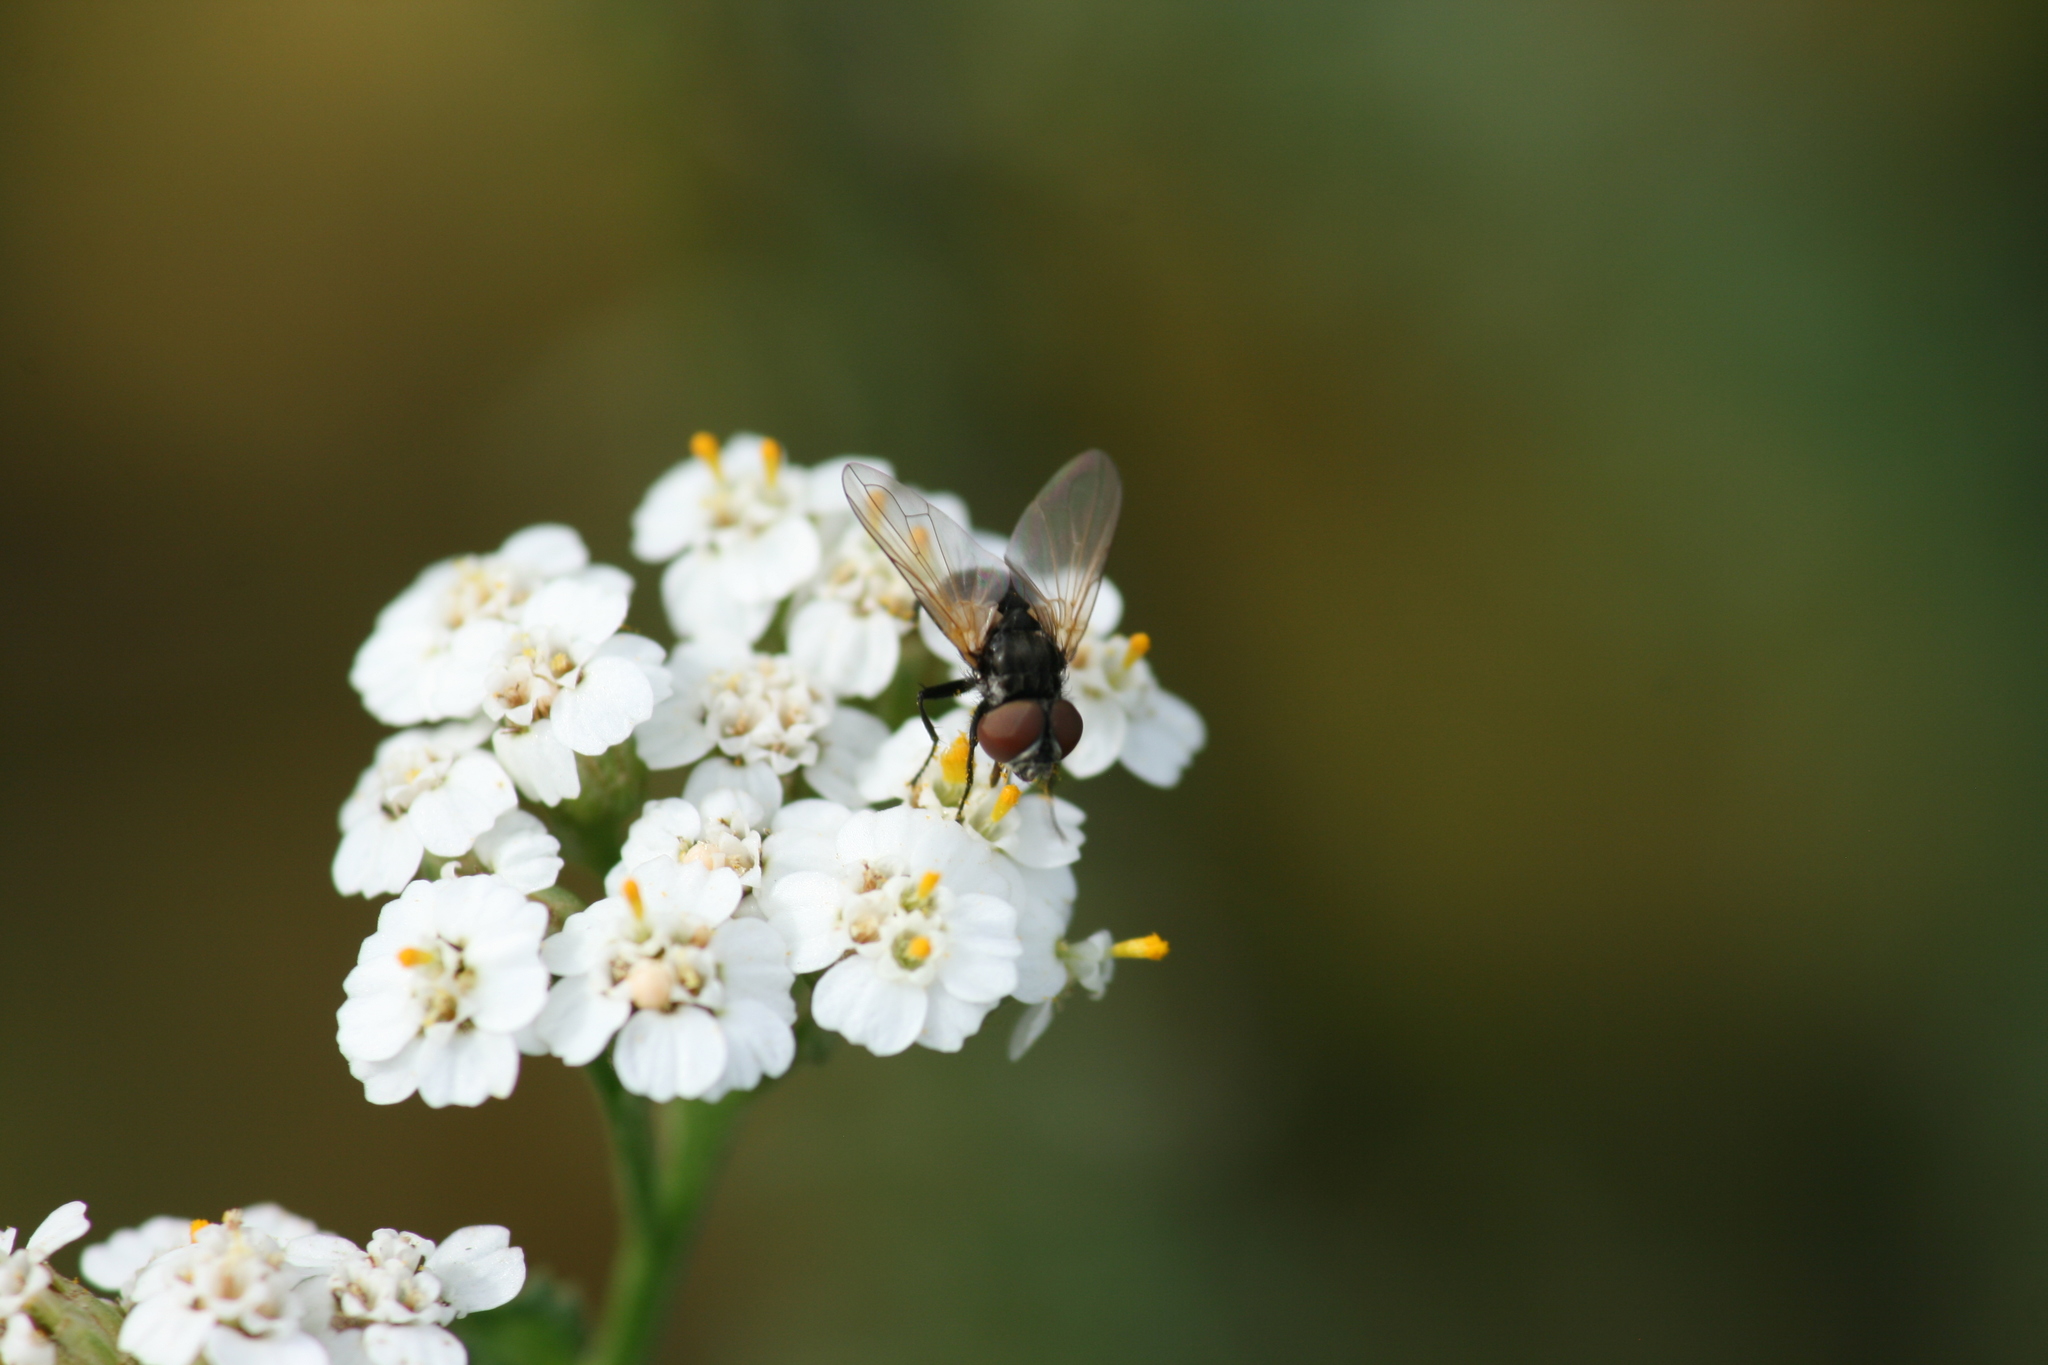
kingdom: Animalia
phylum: Arthropoda
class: Insecta
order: Diptera
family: Tachinidae
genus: Phasia
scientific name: Phasia obesa
